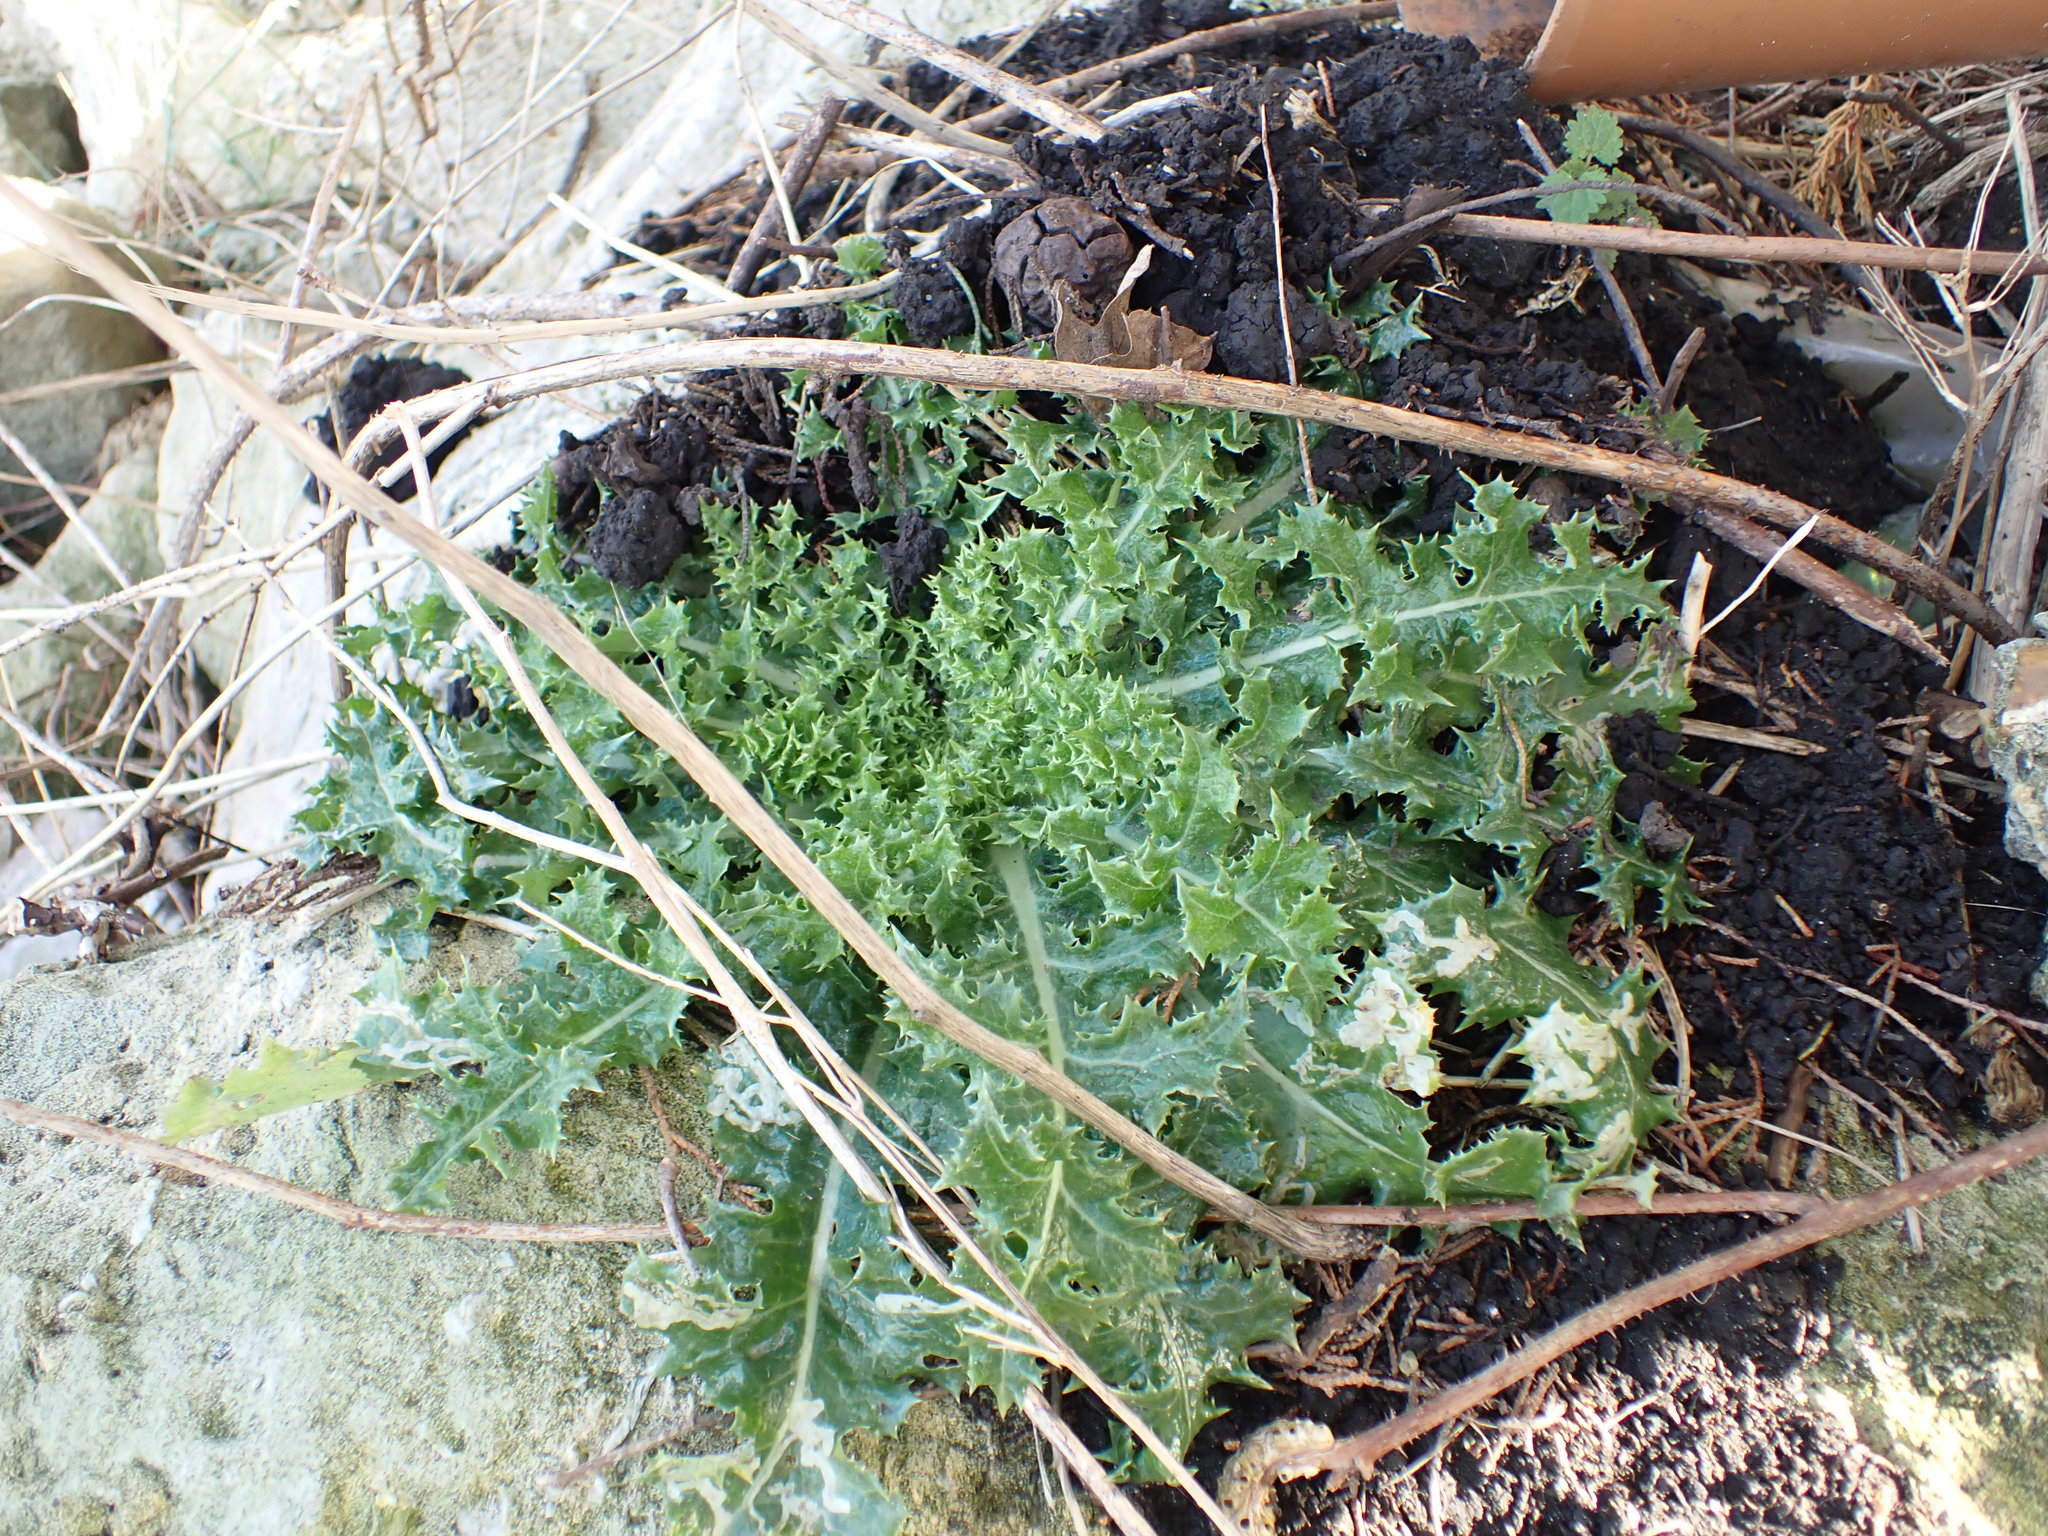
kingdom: Plantae
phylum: Tracheophyta
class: Magnoliopsida
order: Asterales
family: Asteraceae
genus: Cirsium
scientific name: Cirsium arvense
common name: Creeping thistle
